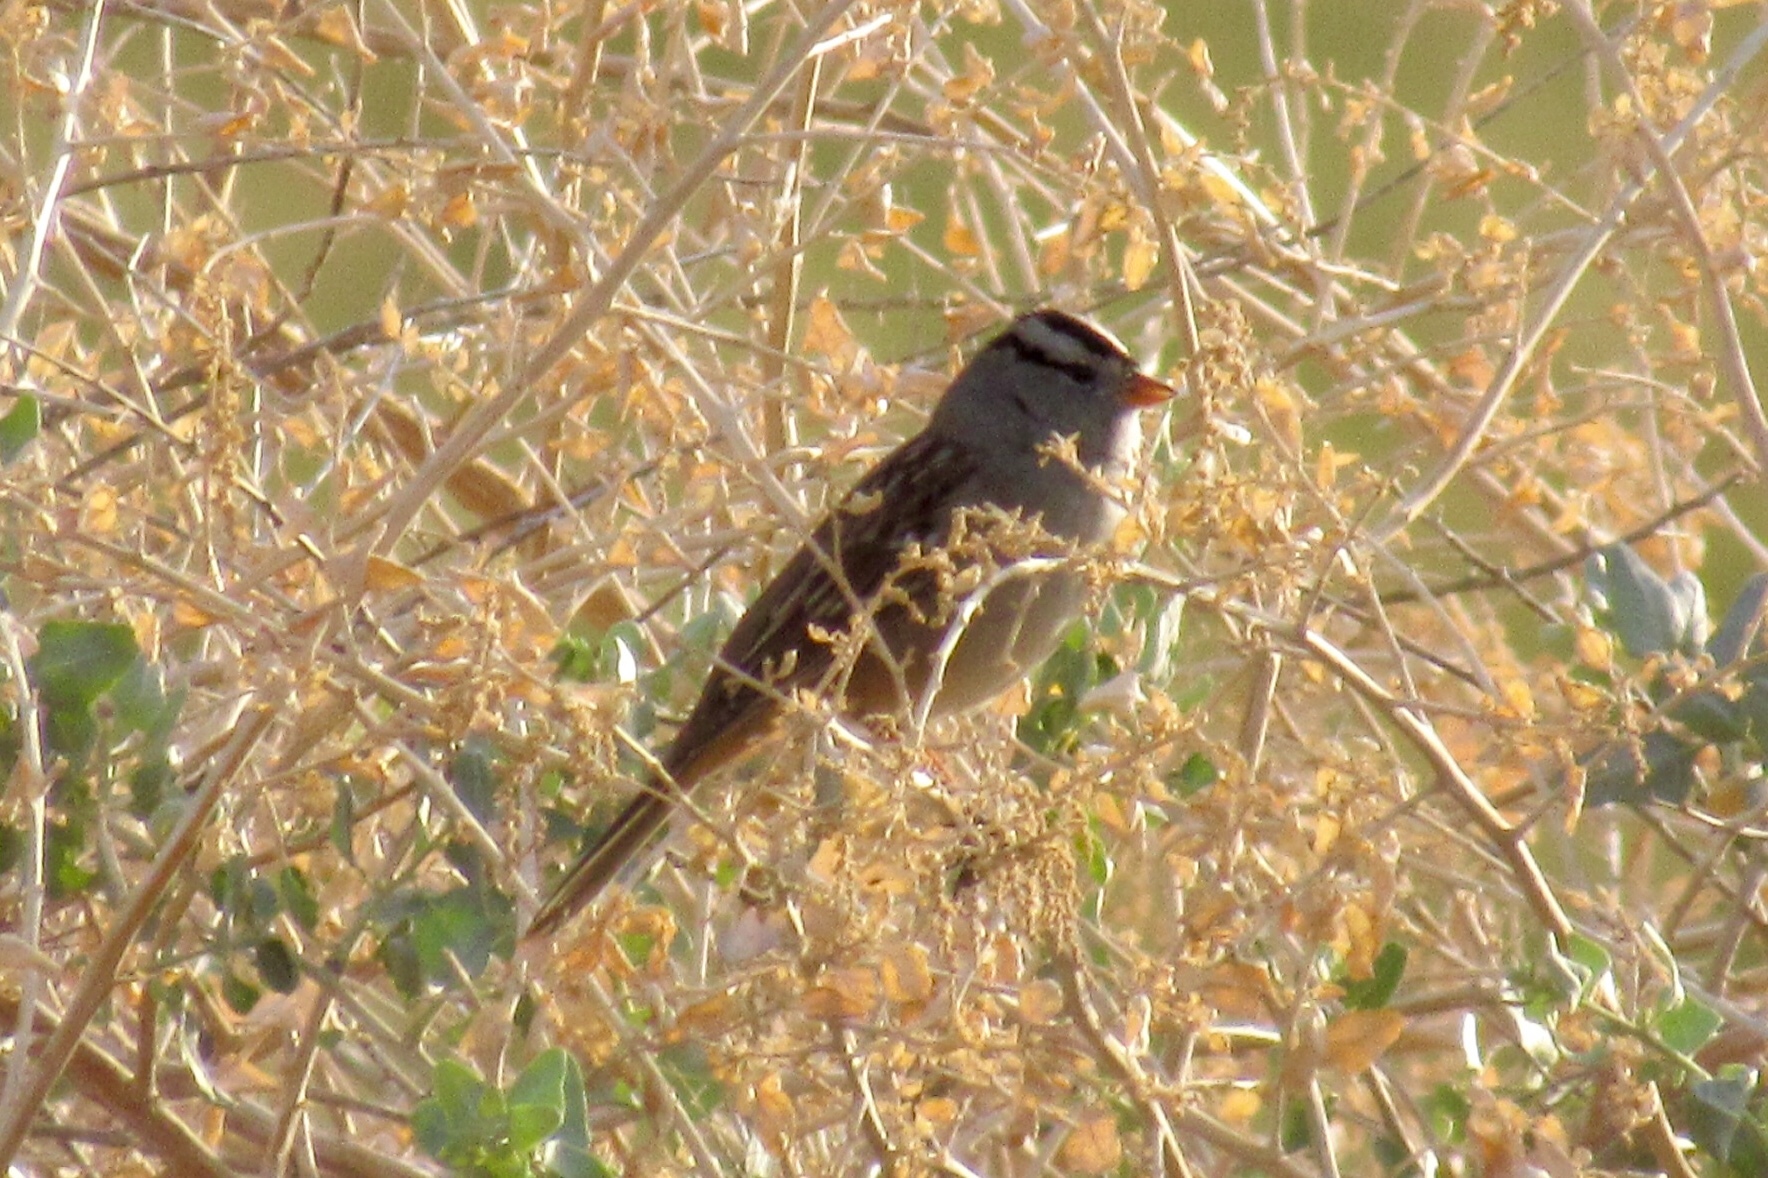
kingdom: Animalia
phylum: Chordata
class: Aves
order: Passeriformes
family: Passerellidae
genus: Zonotrichia
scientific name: Zonotrichia leucophrys
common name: White-crowned sparrow
